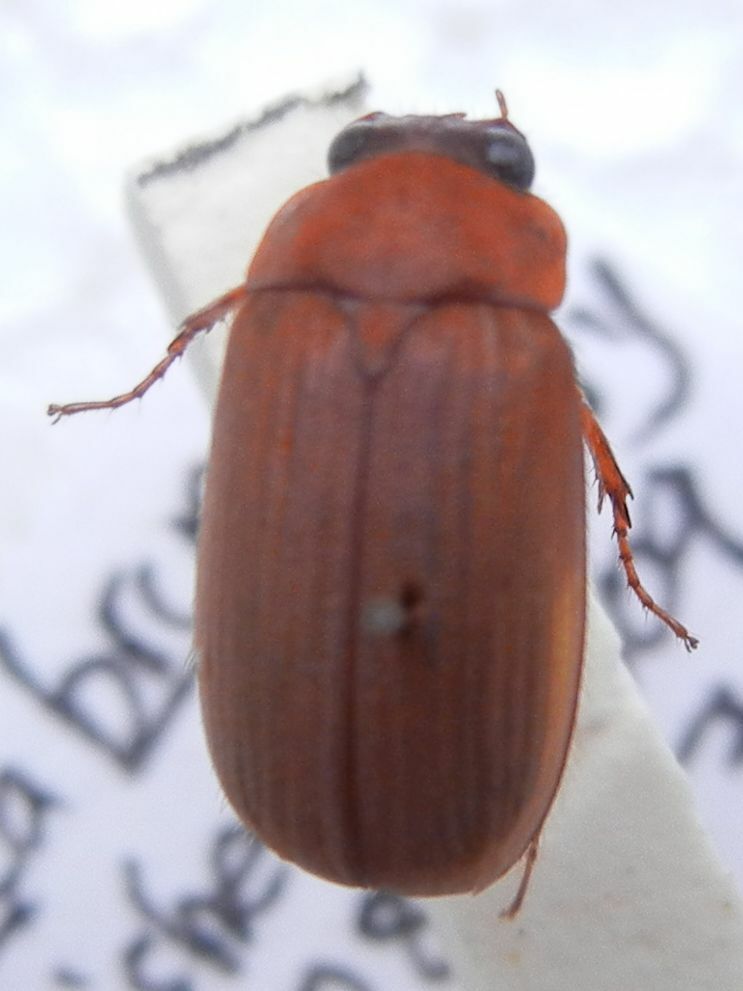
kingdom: Animalia
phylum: Arthropoda
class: Insecta
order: Coleoptera
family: Scarabaeidae
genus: Serica
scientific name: Serica brunnea
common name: Brown chafer
